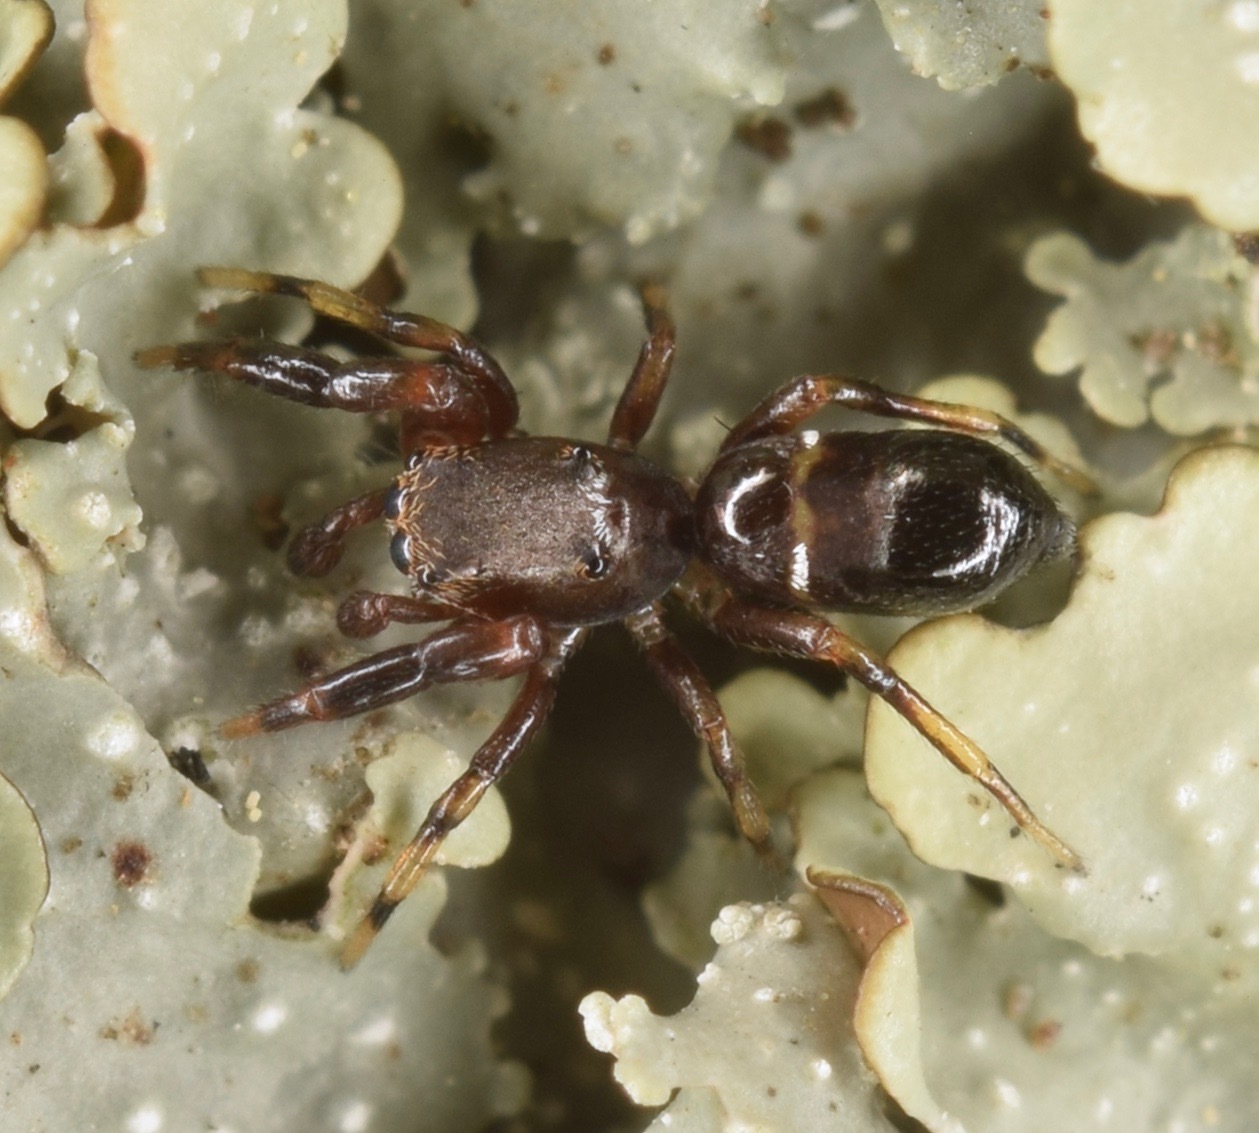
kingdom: Animalia
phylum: Arthropoda
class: Arachnida
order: Araneae
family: Salticidae
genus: Synageles
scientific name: Synageles
